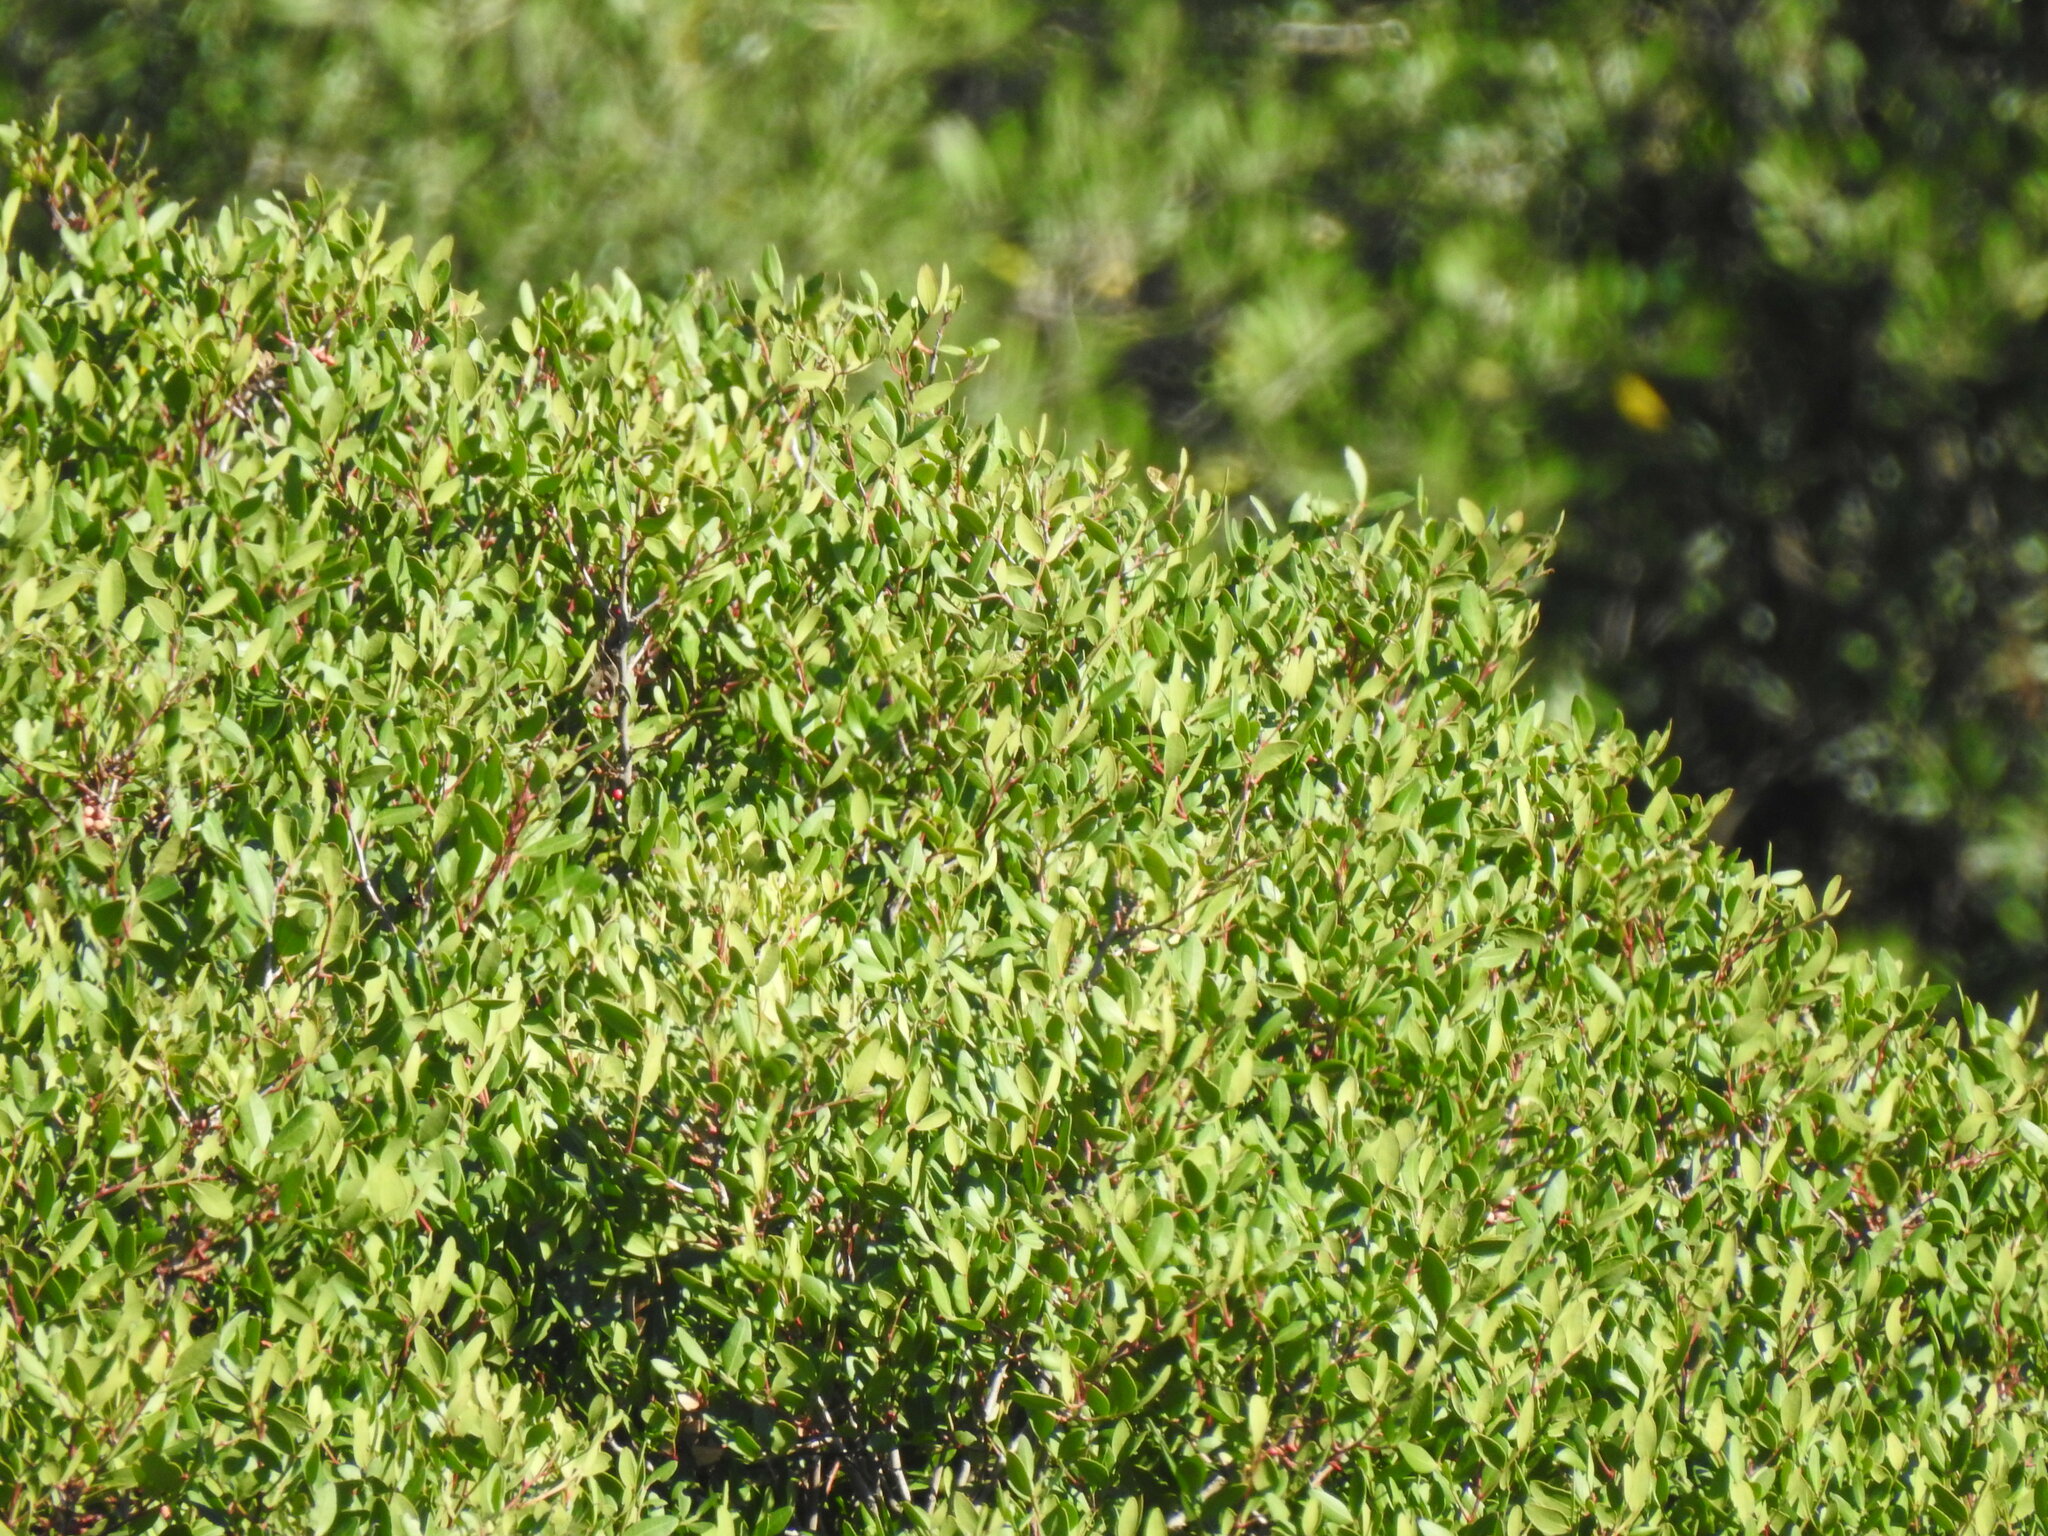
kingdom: Plantae
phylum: Tracheophyta
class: Magnoliopsida
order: Sapindales
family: Anacardiaceae
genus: Pistacia
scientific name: Pistacia lentiscus
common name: Lentisk
